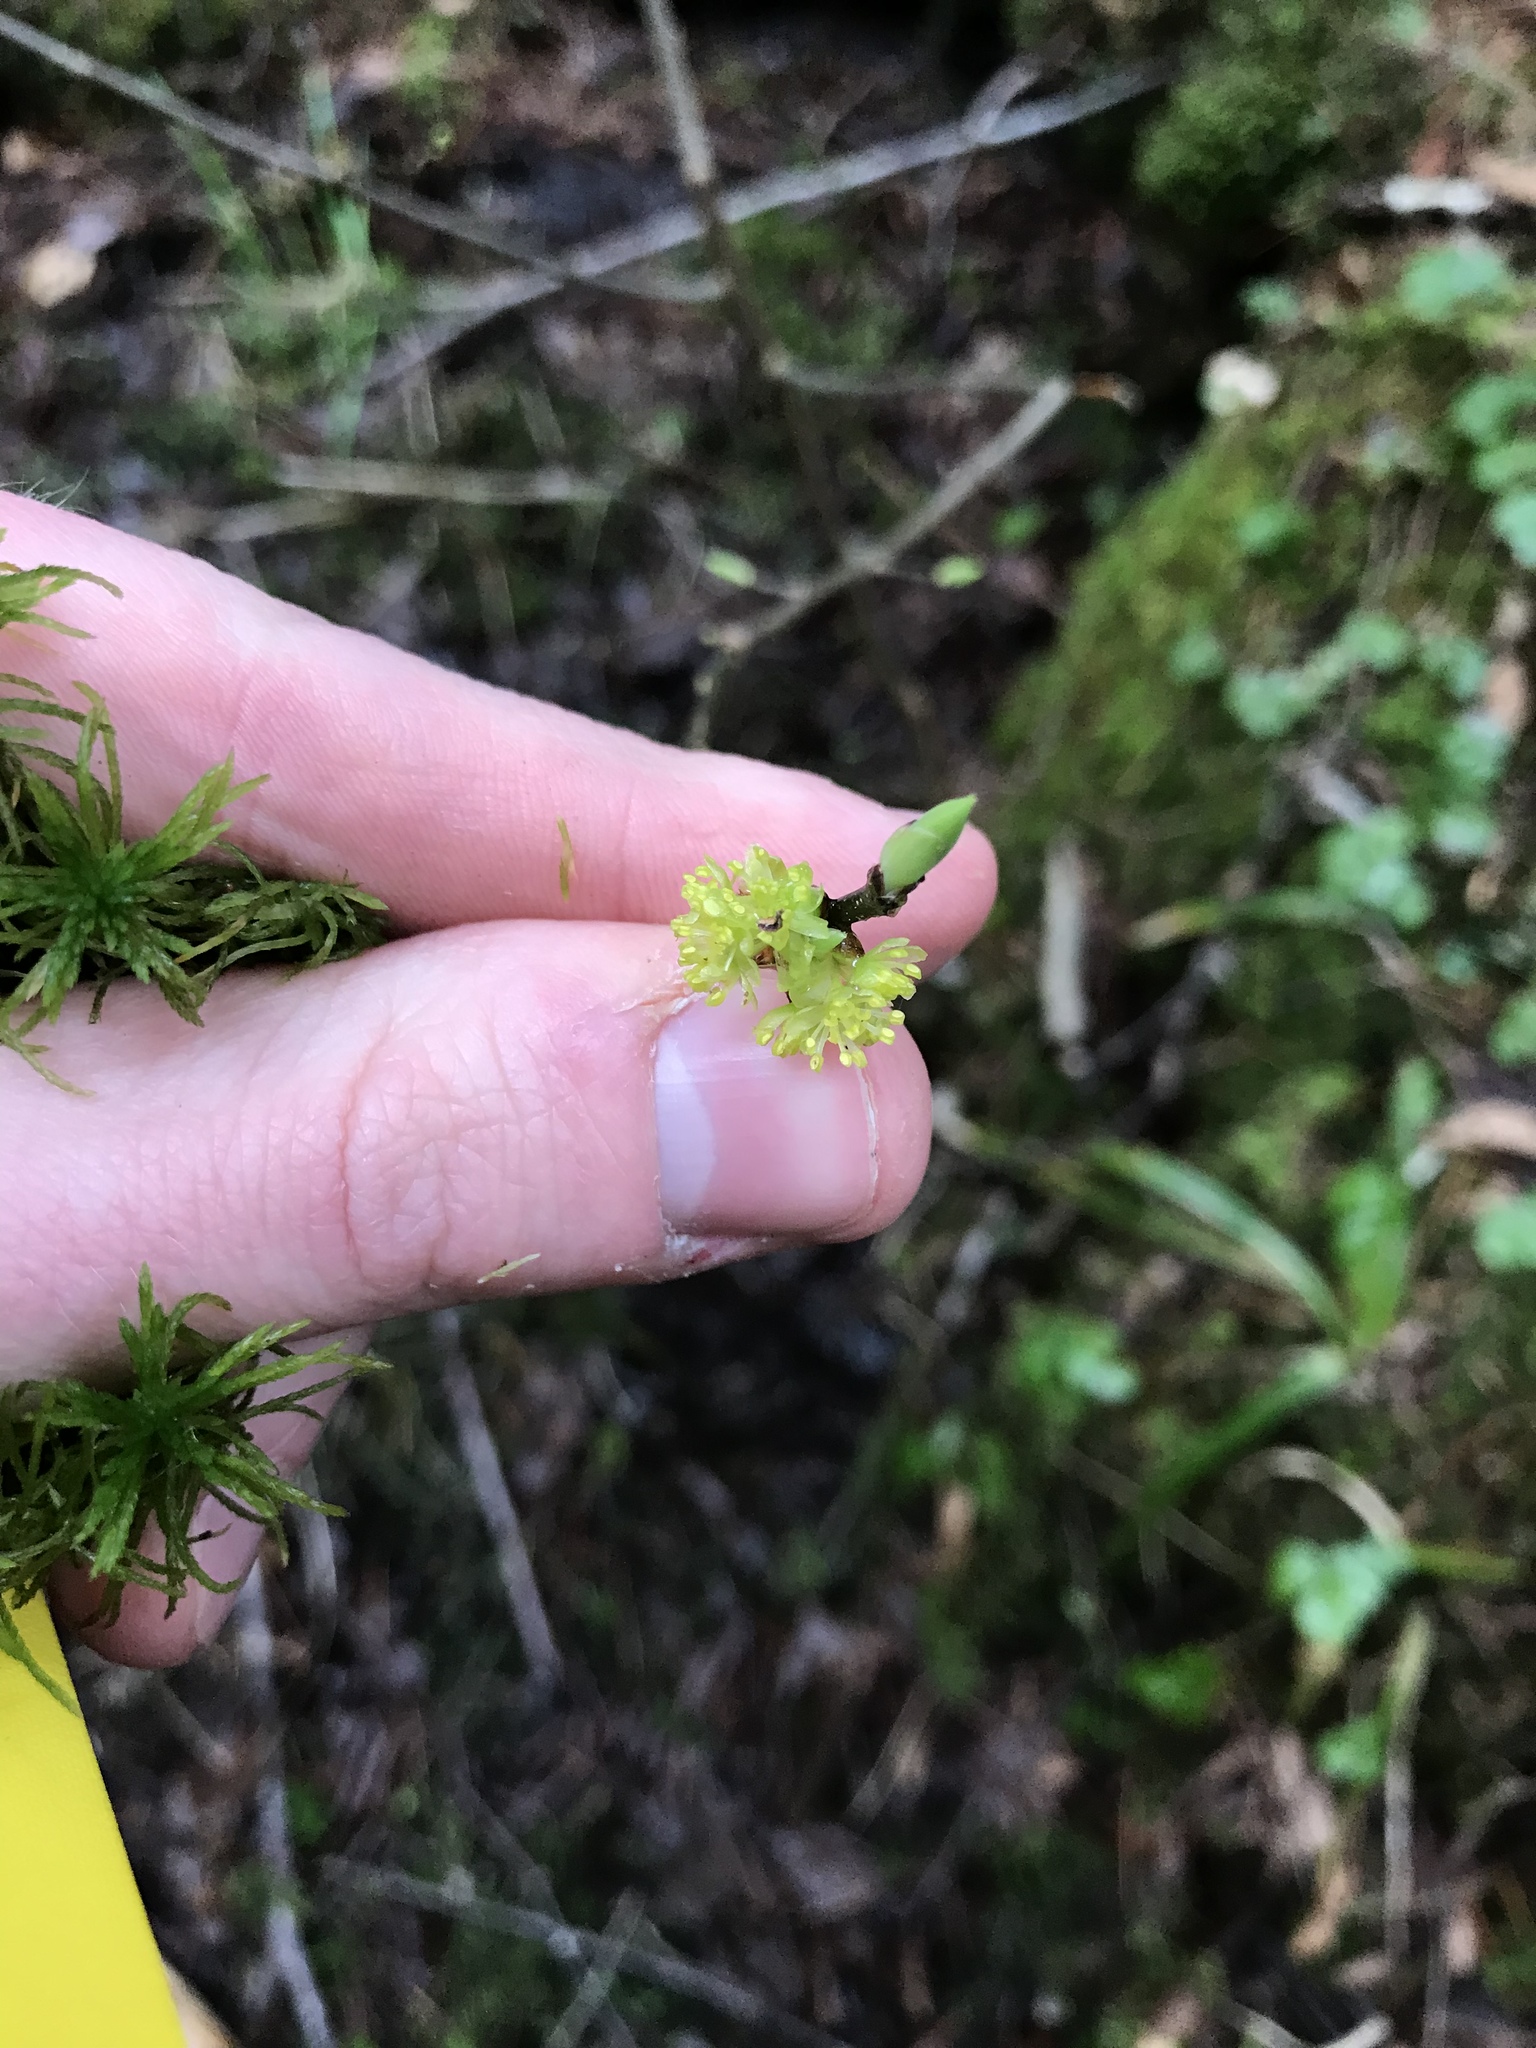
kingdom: Plantae
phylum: Tracheophyta
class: Magnoliopsida
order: Laurales
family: Lauraceae
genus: Lindera
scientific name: Lindera benzoin
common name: Spicebush
